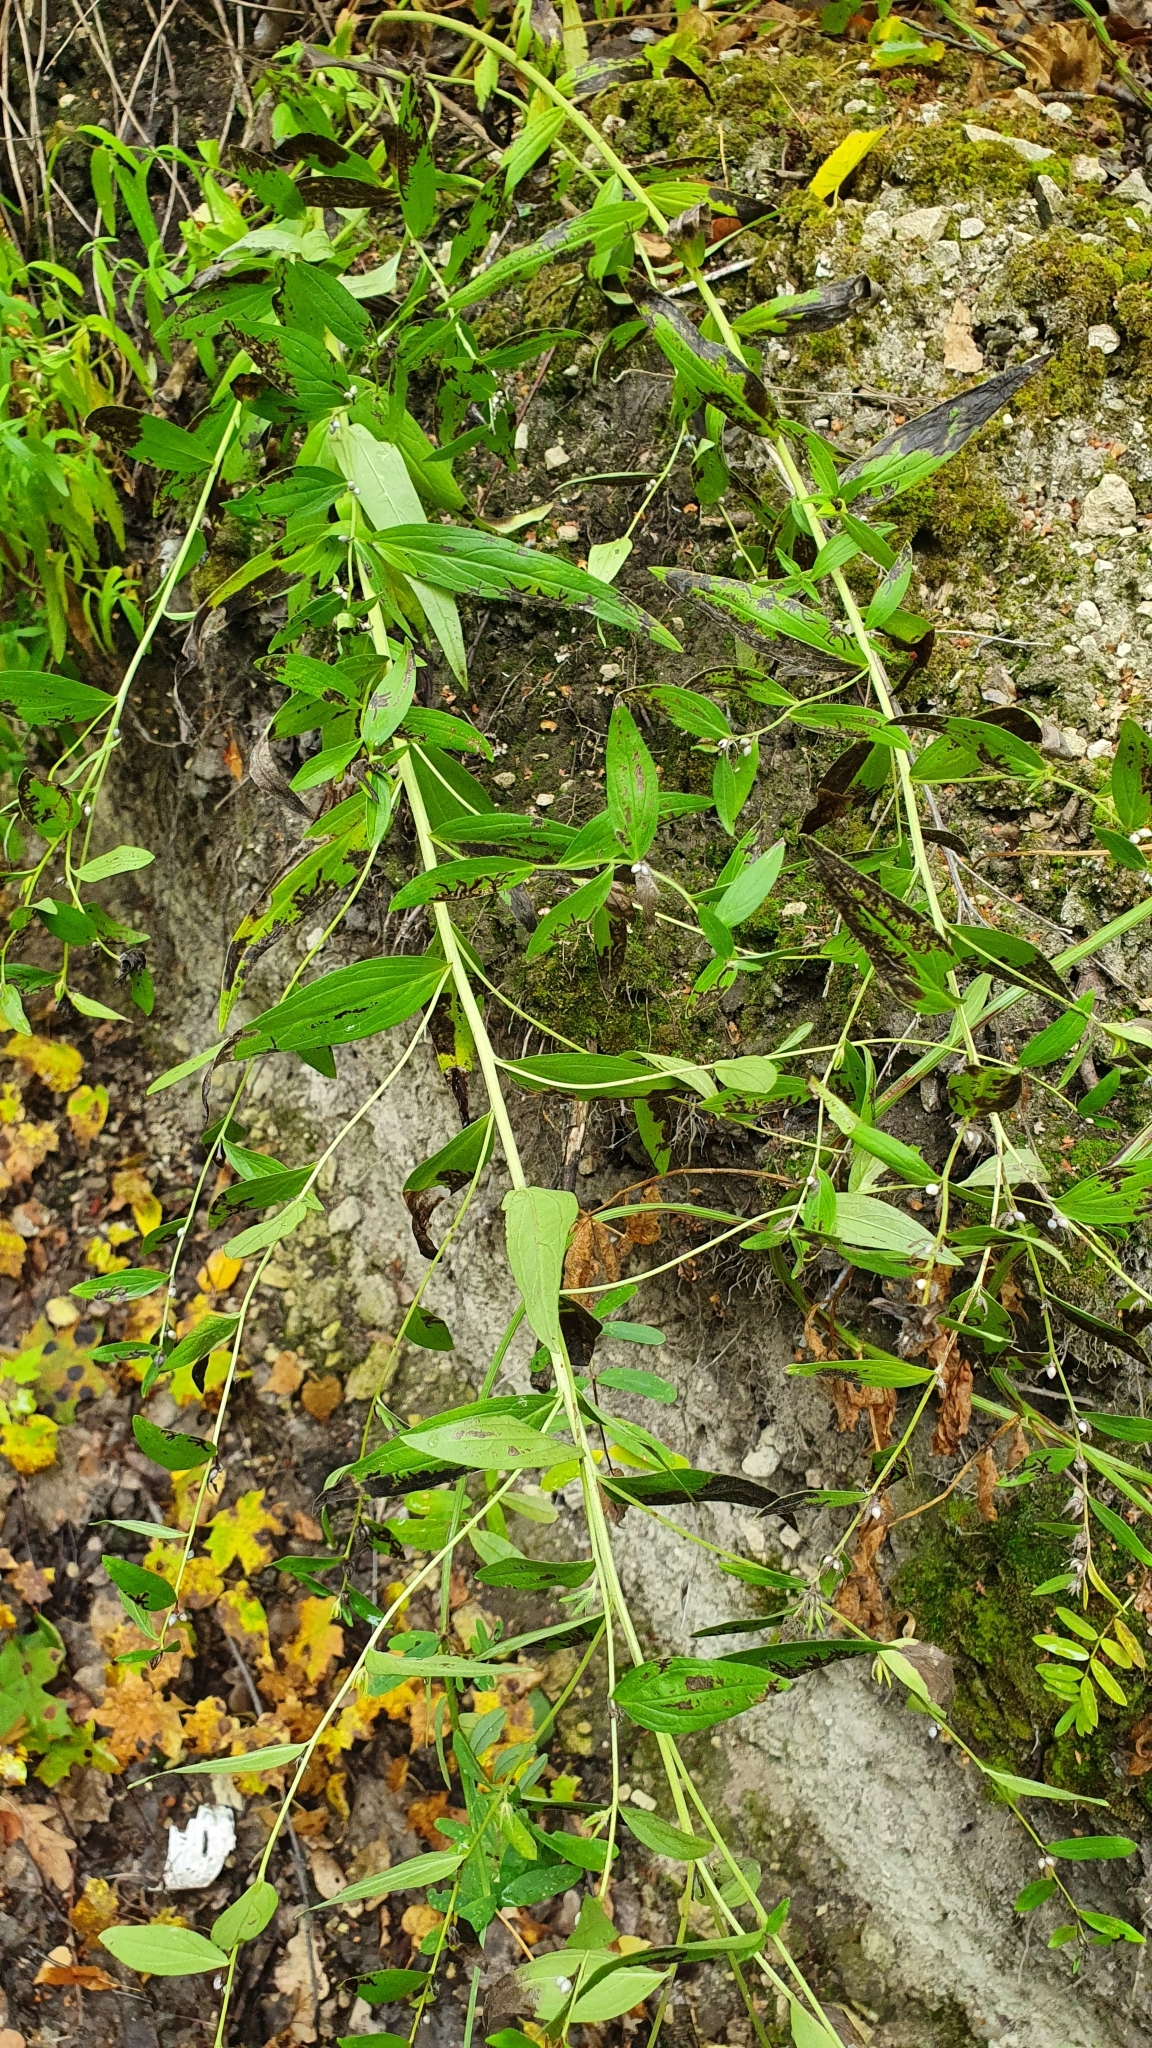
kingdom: Plantae
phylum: Tracheophyta
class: Magnoliopsida
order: Boraginales
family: Boraginaceae
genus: Lithospermum
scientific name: Lithospermum officinale
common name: Common gromwell
